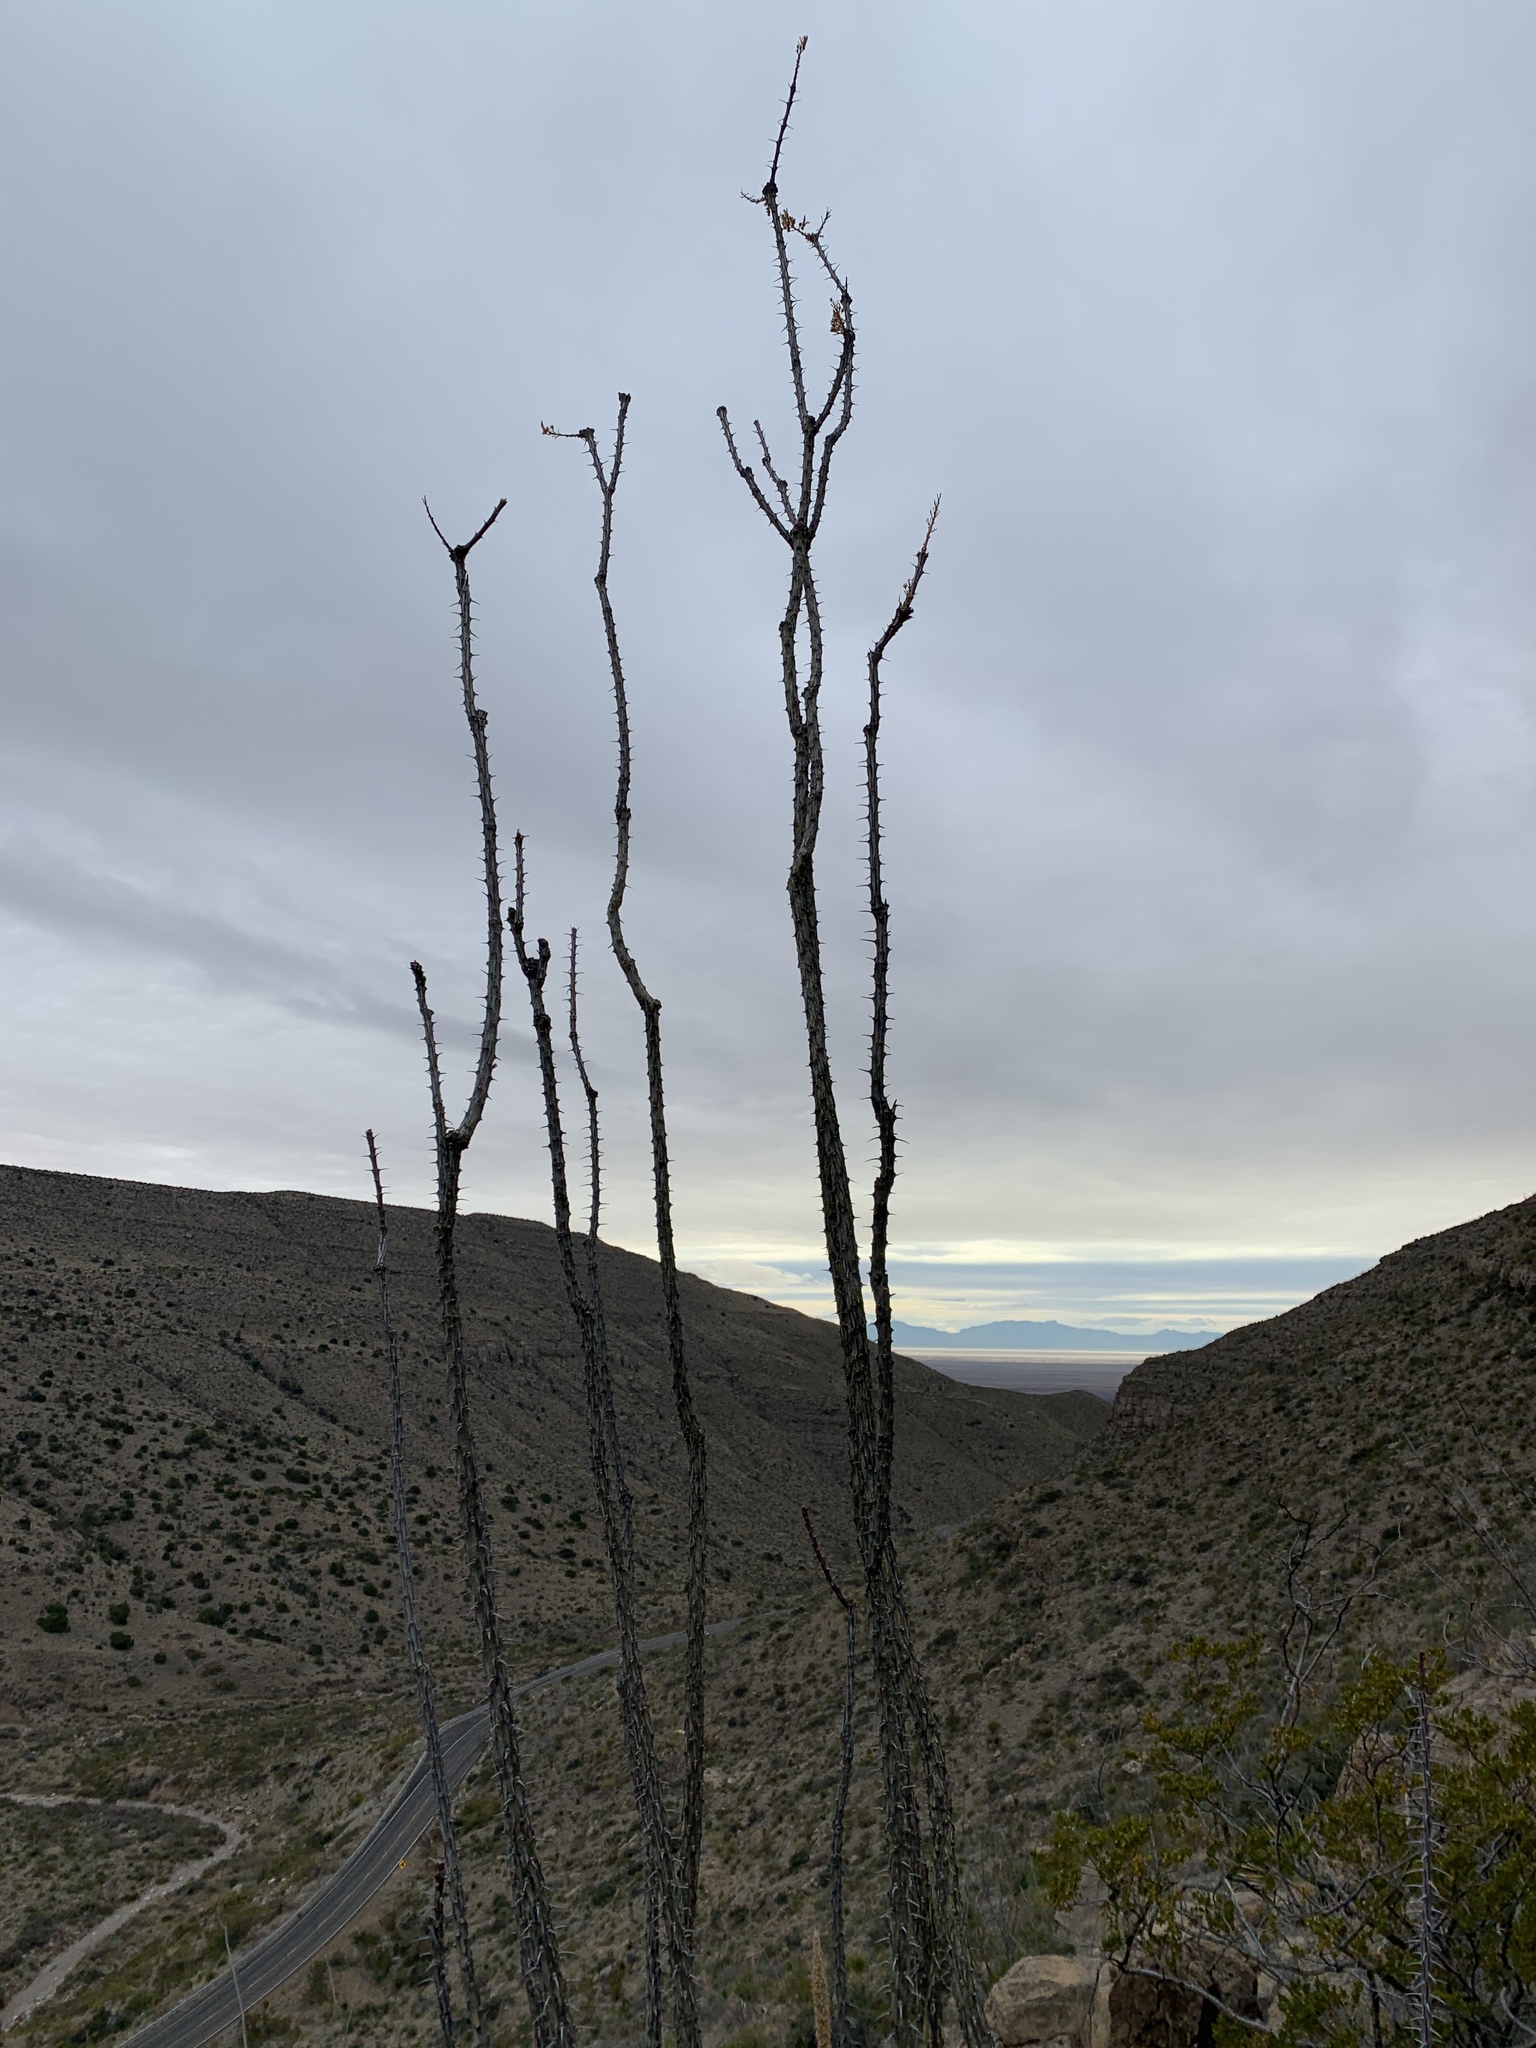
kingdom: Plantae
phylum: Tracheophyta
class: Magnoliopsida
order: Ericales
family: Fouquieriaceae
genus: Fouquieria
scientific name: Fouquieria splendens
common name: Vine-cactus
